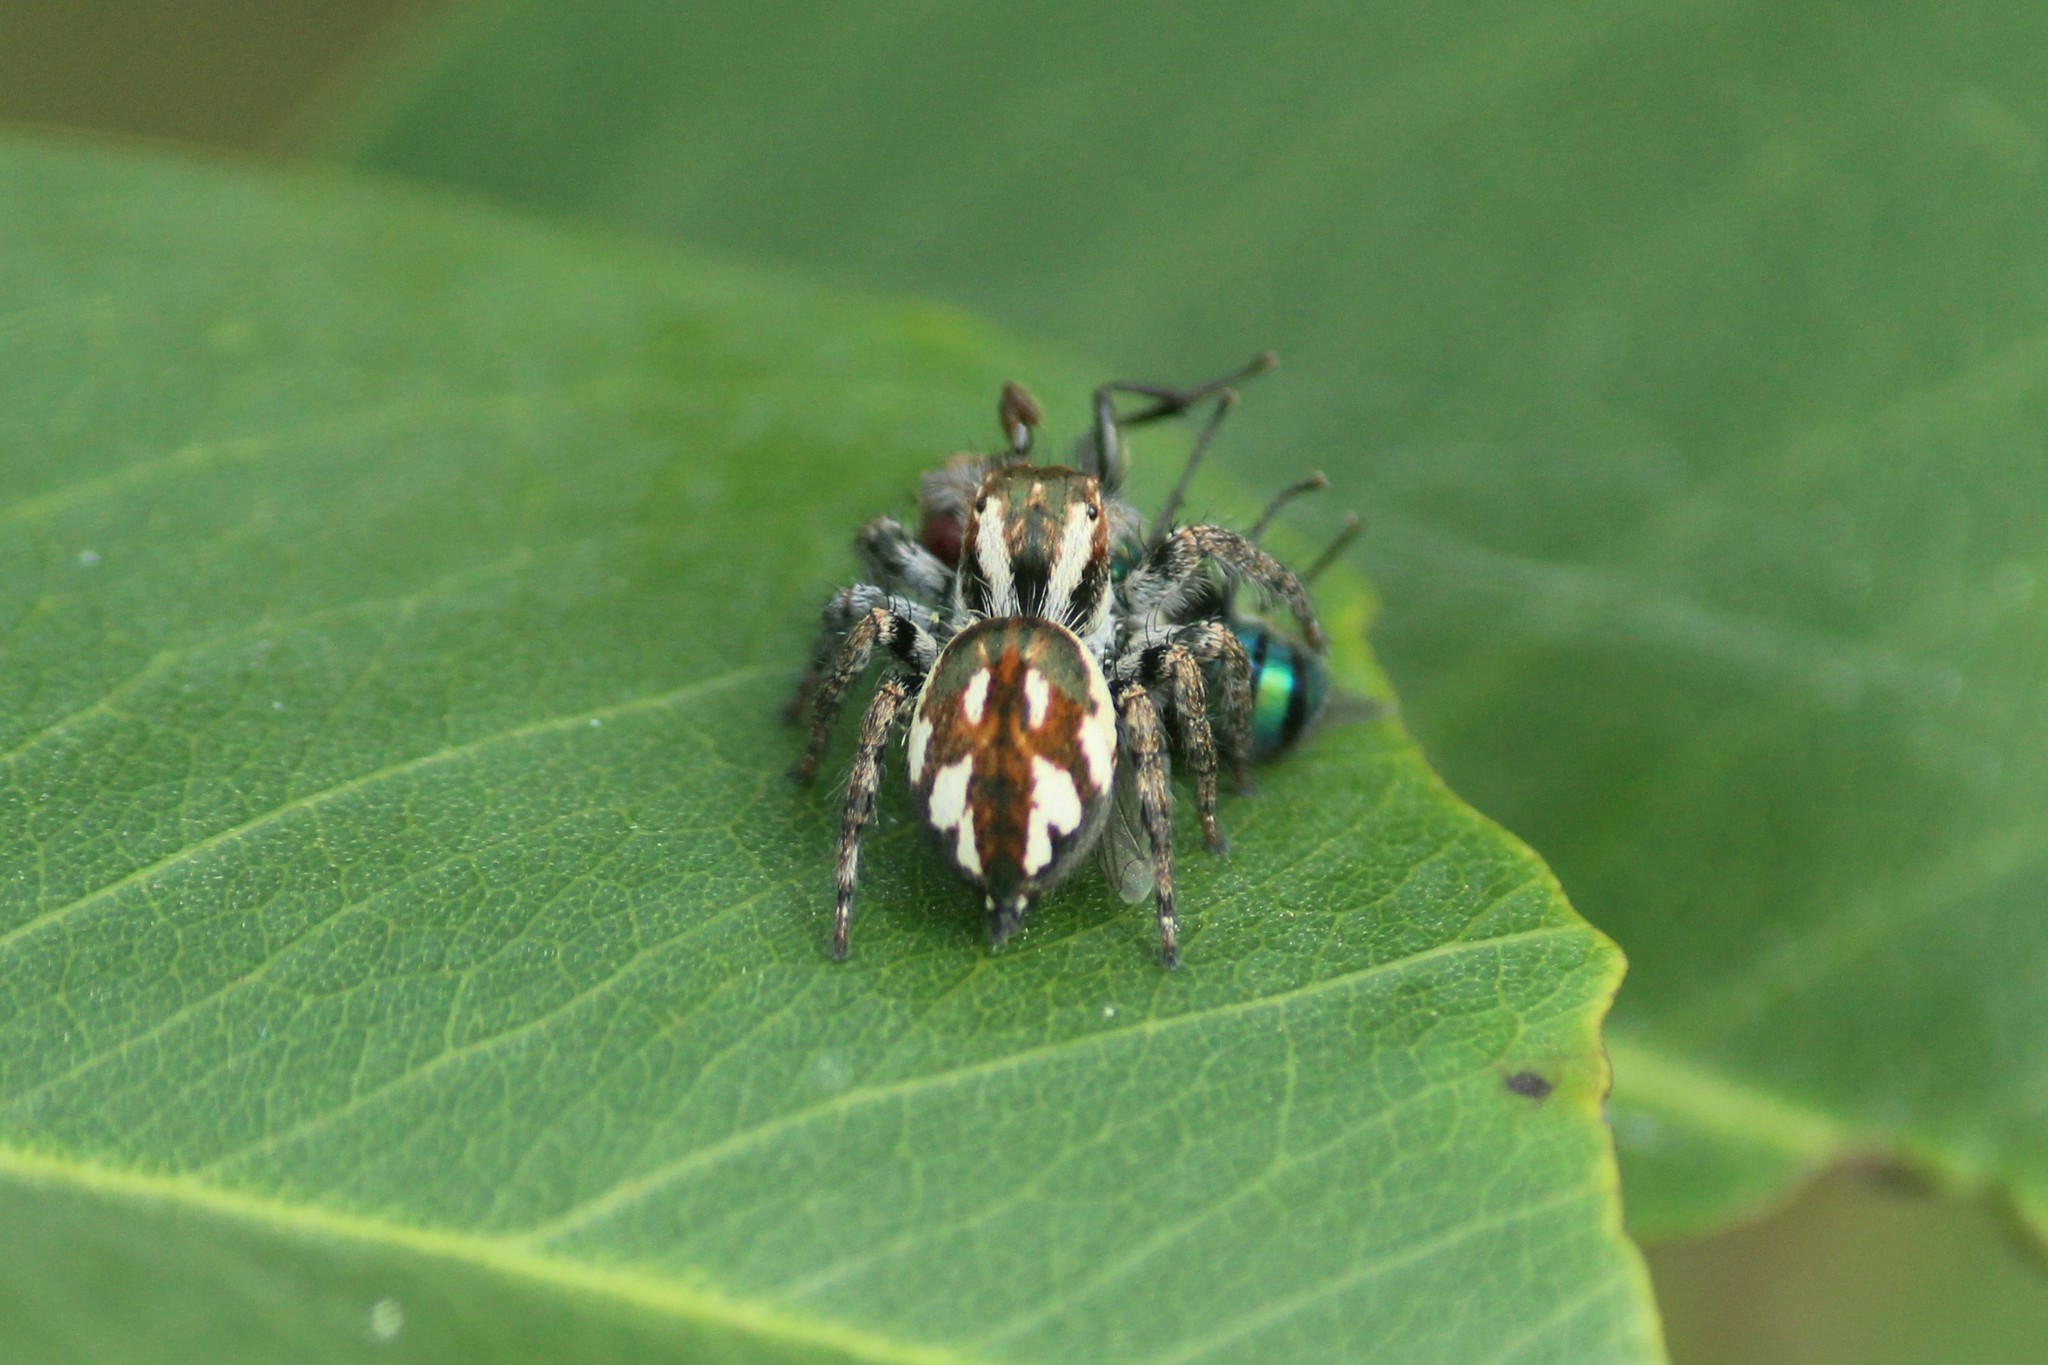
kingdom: Animalia
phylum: Arthropoda
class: Arachnida
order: Araneae
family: Salticidae
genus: Carrhotus
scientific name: Carrhotus viduus
